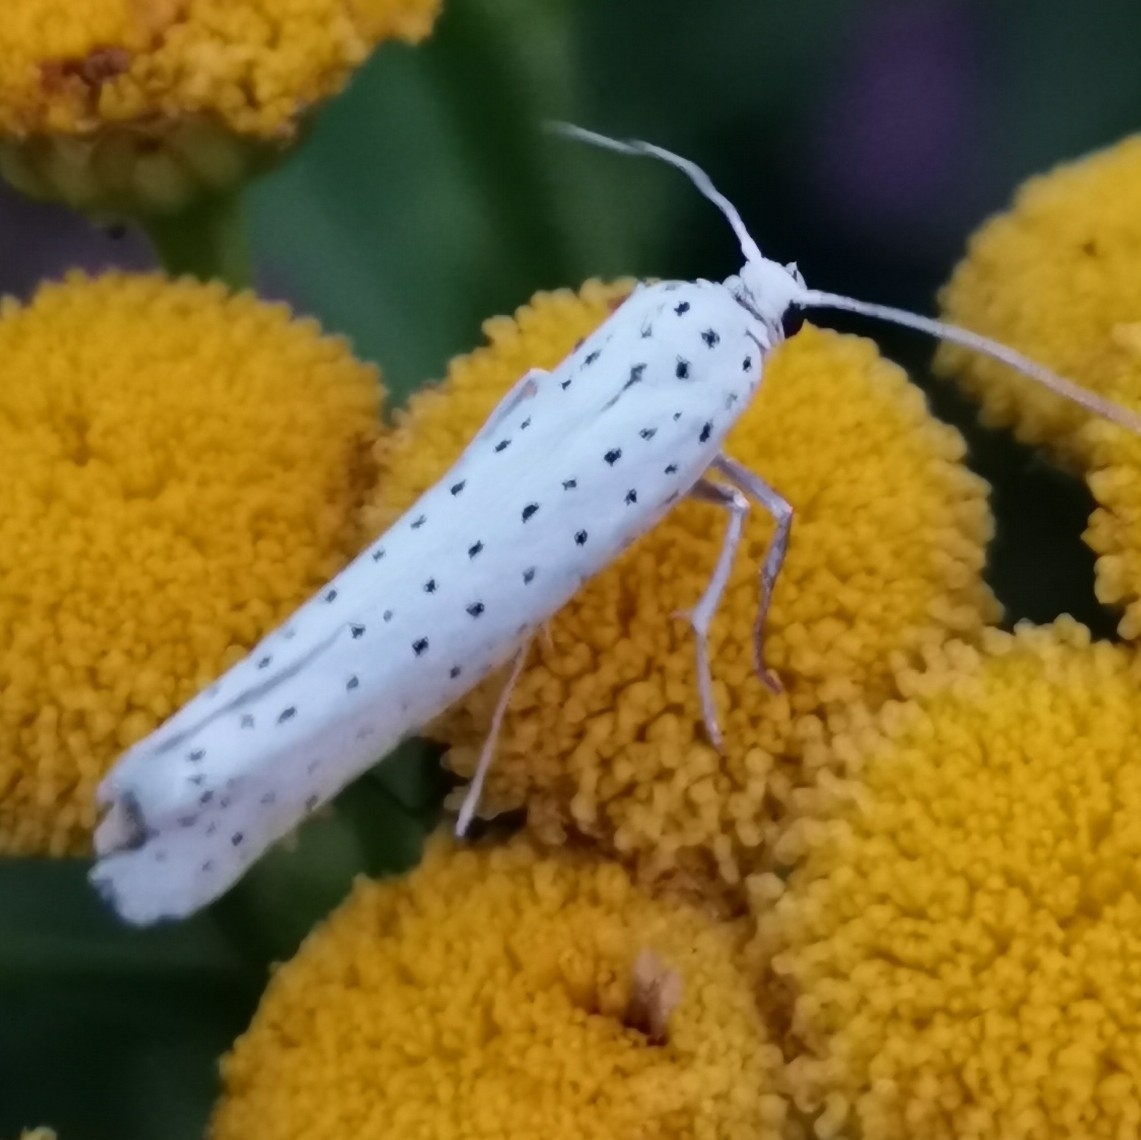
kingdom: Animalia
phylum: Arthropoda
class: Insecta
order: Lepidoptera
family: Yponomeutidae
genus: Yponomeuta
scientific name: Yponomeuta evonymella
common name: Bird-cherry ermine
